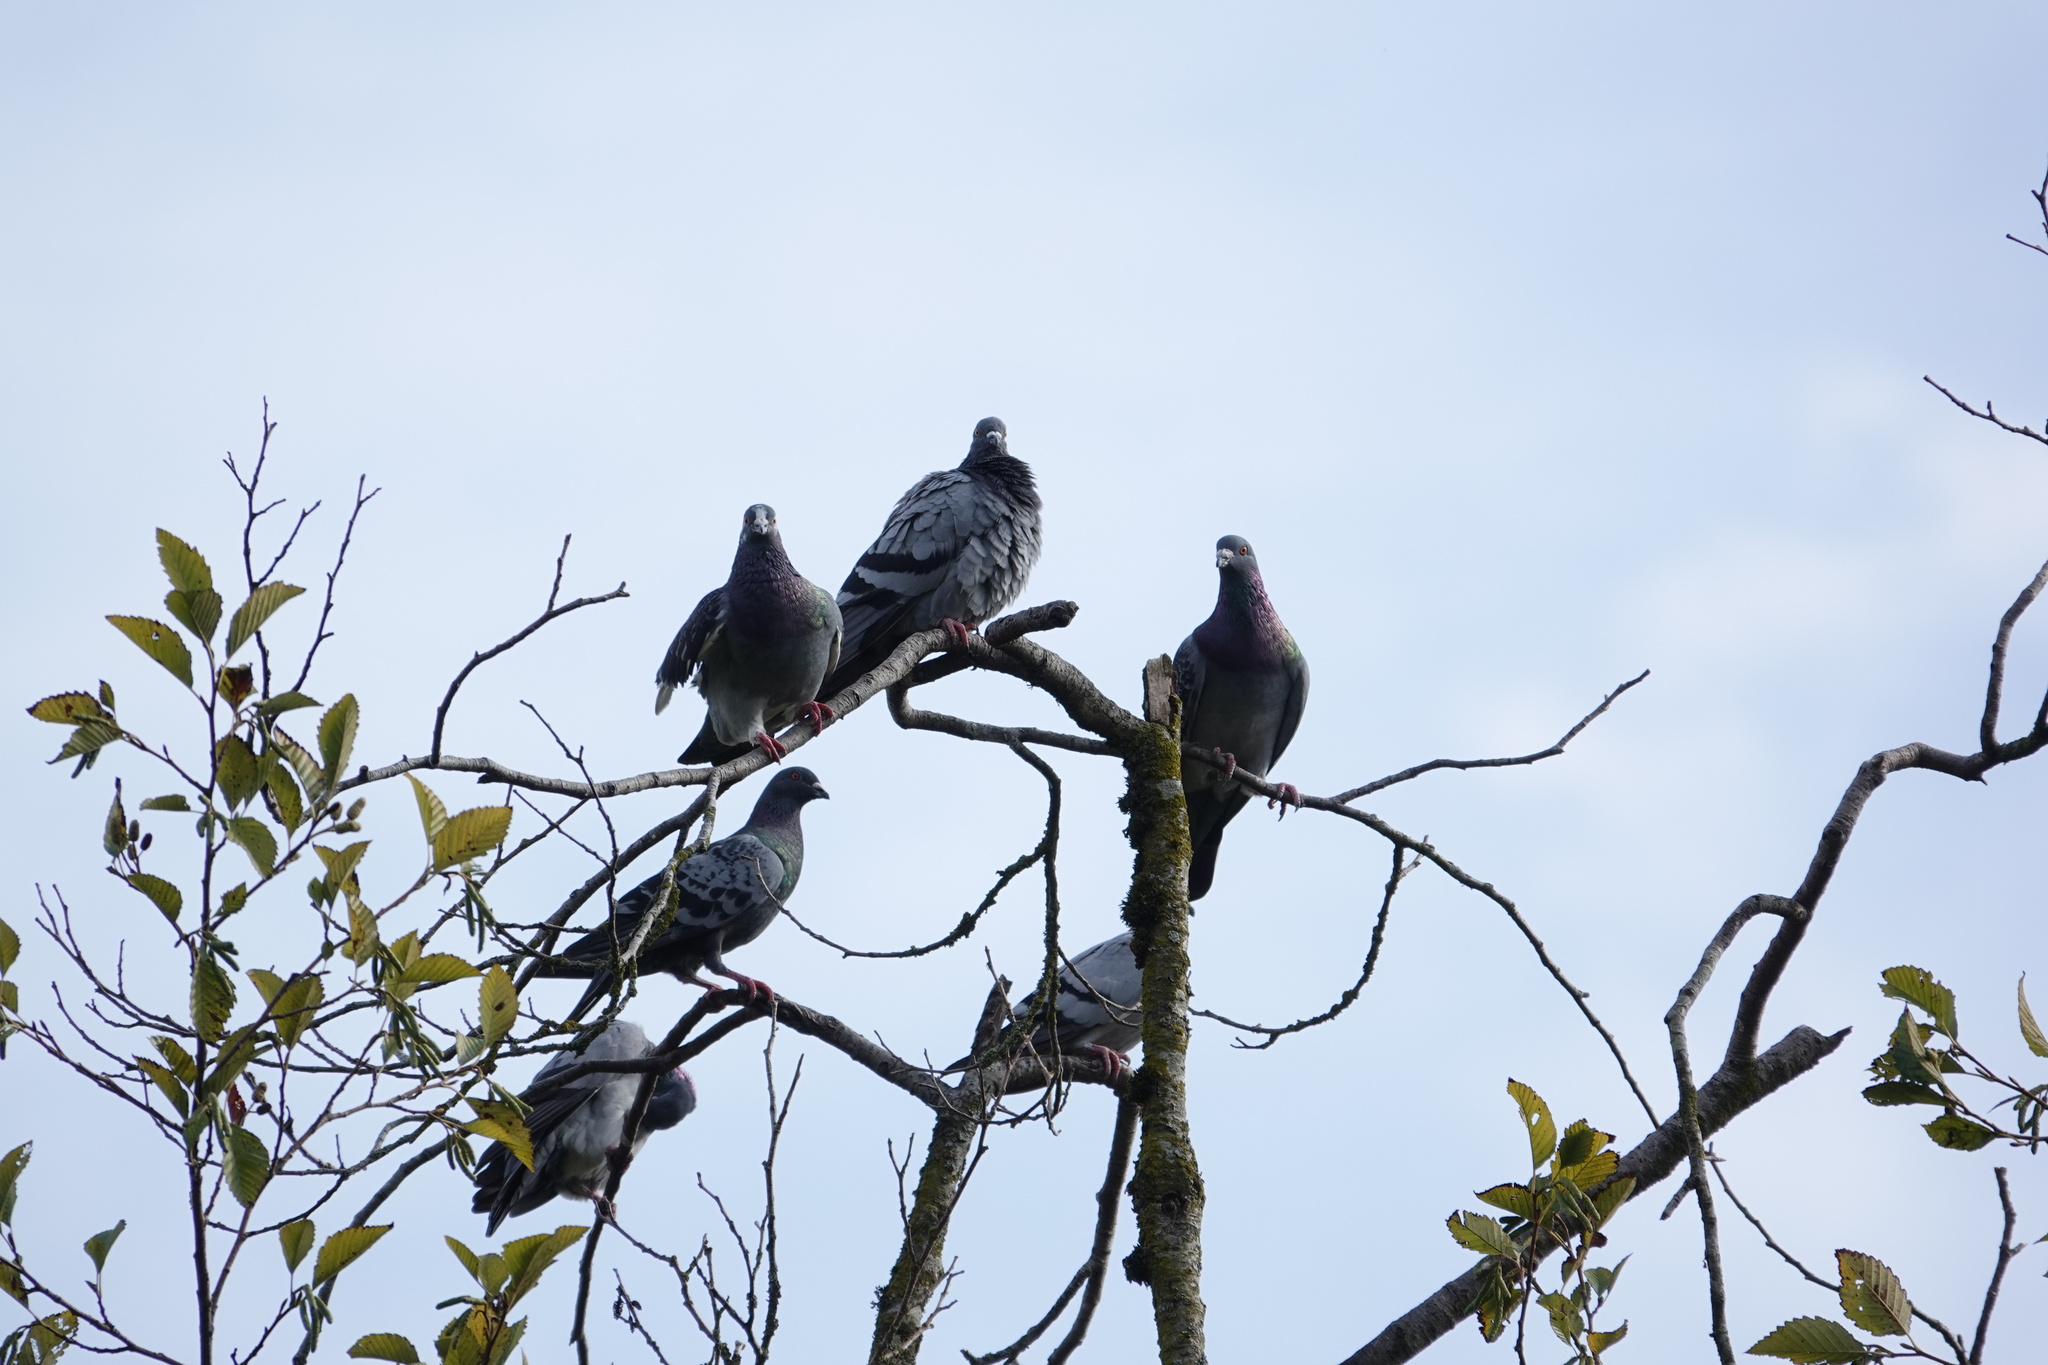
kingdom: Animalia
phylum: Chordata
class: Aves
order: Columbiformes
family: Columbidae
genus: Columba
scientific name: Columba livia
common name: Rock pigeon
